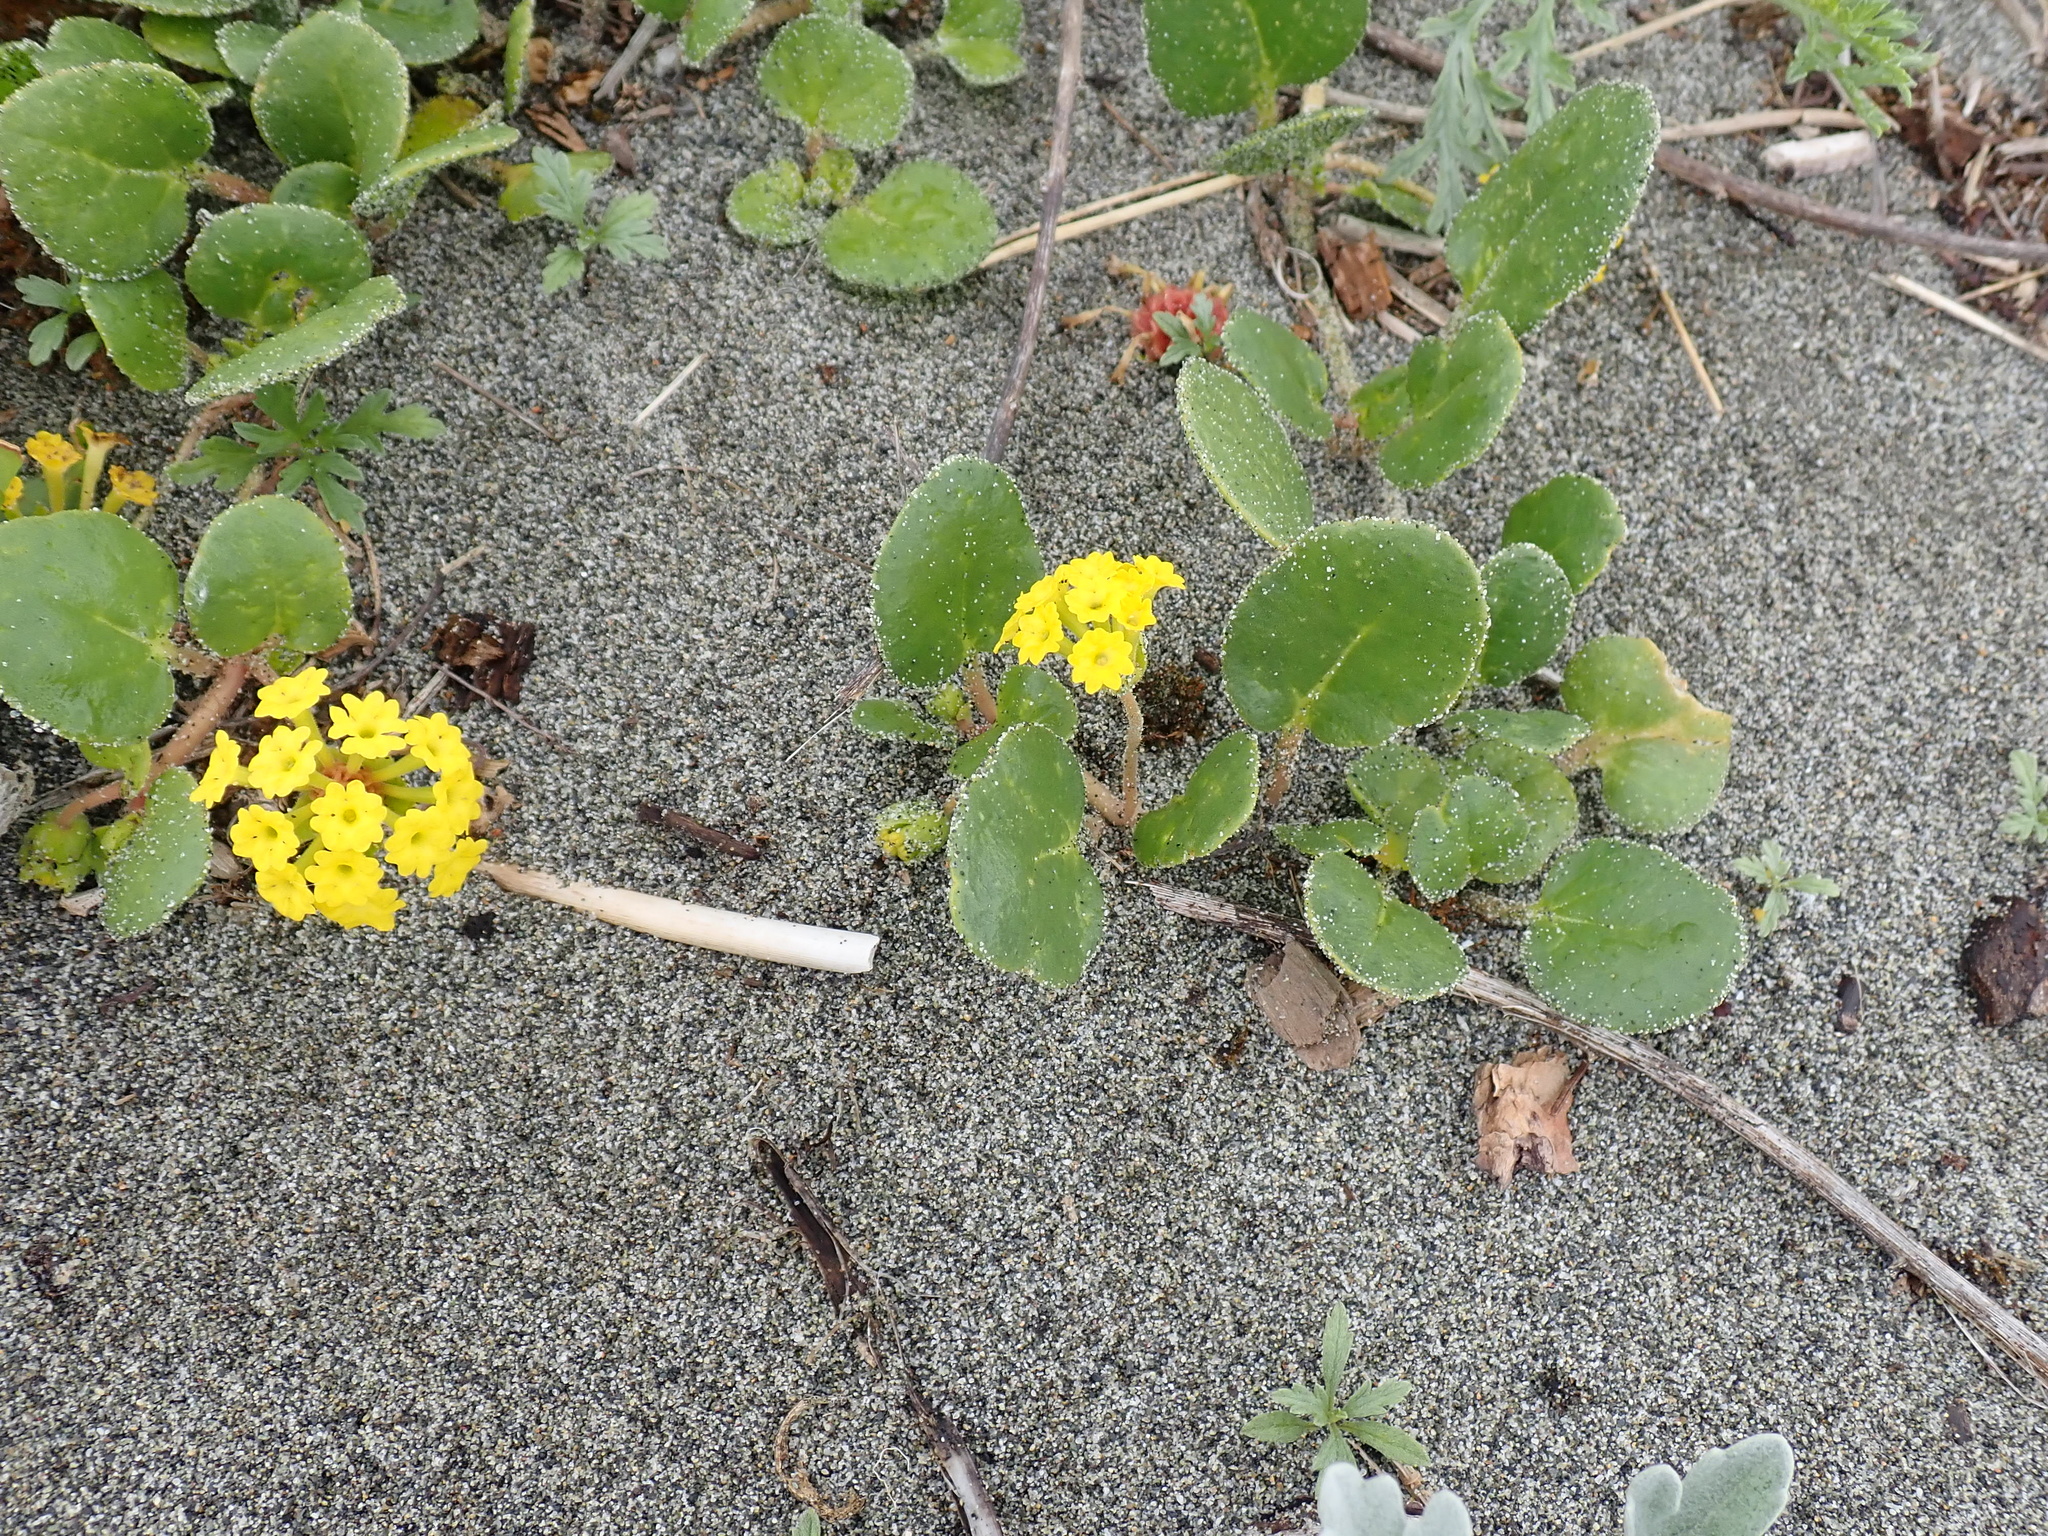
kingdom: Plantae
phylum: Tracheophyta
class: Magnoliopsida
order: Caryophyllales
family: Nyctaginaceae
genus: Abronia
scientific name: Abronia latifolia
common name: Yellow sand-verbena
